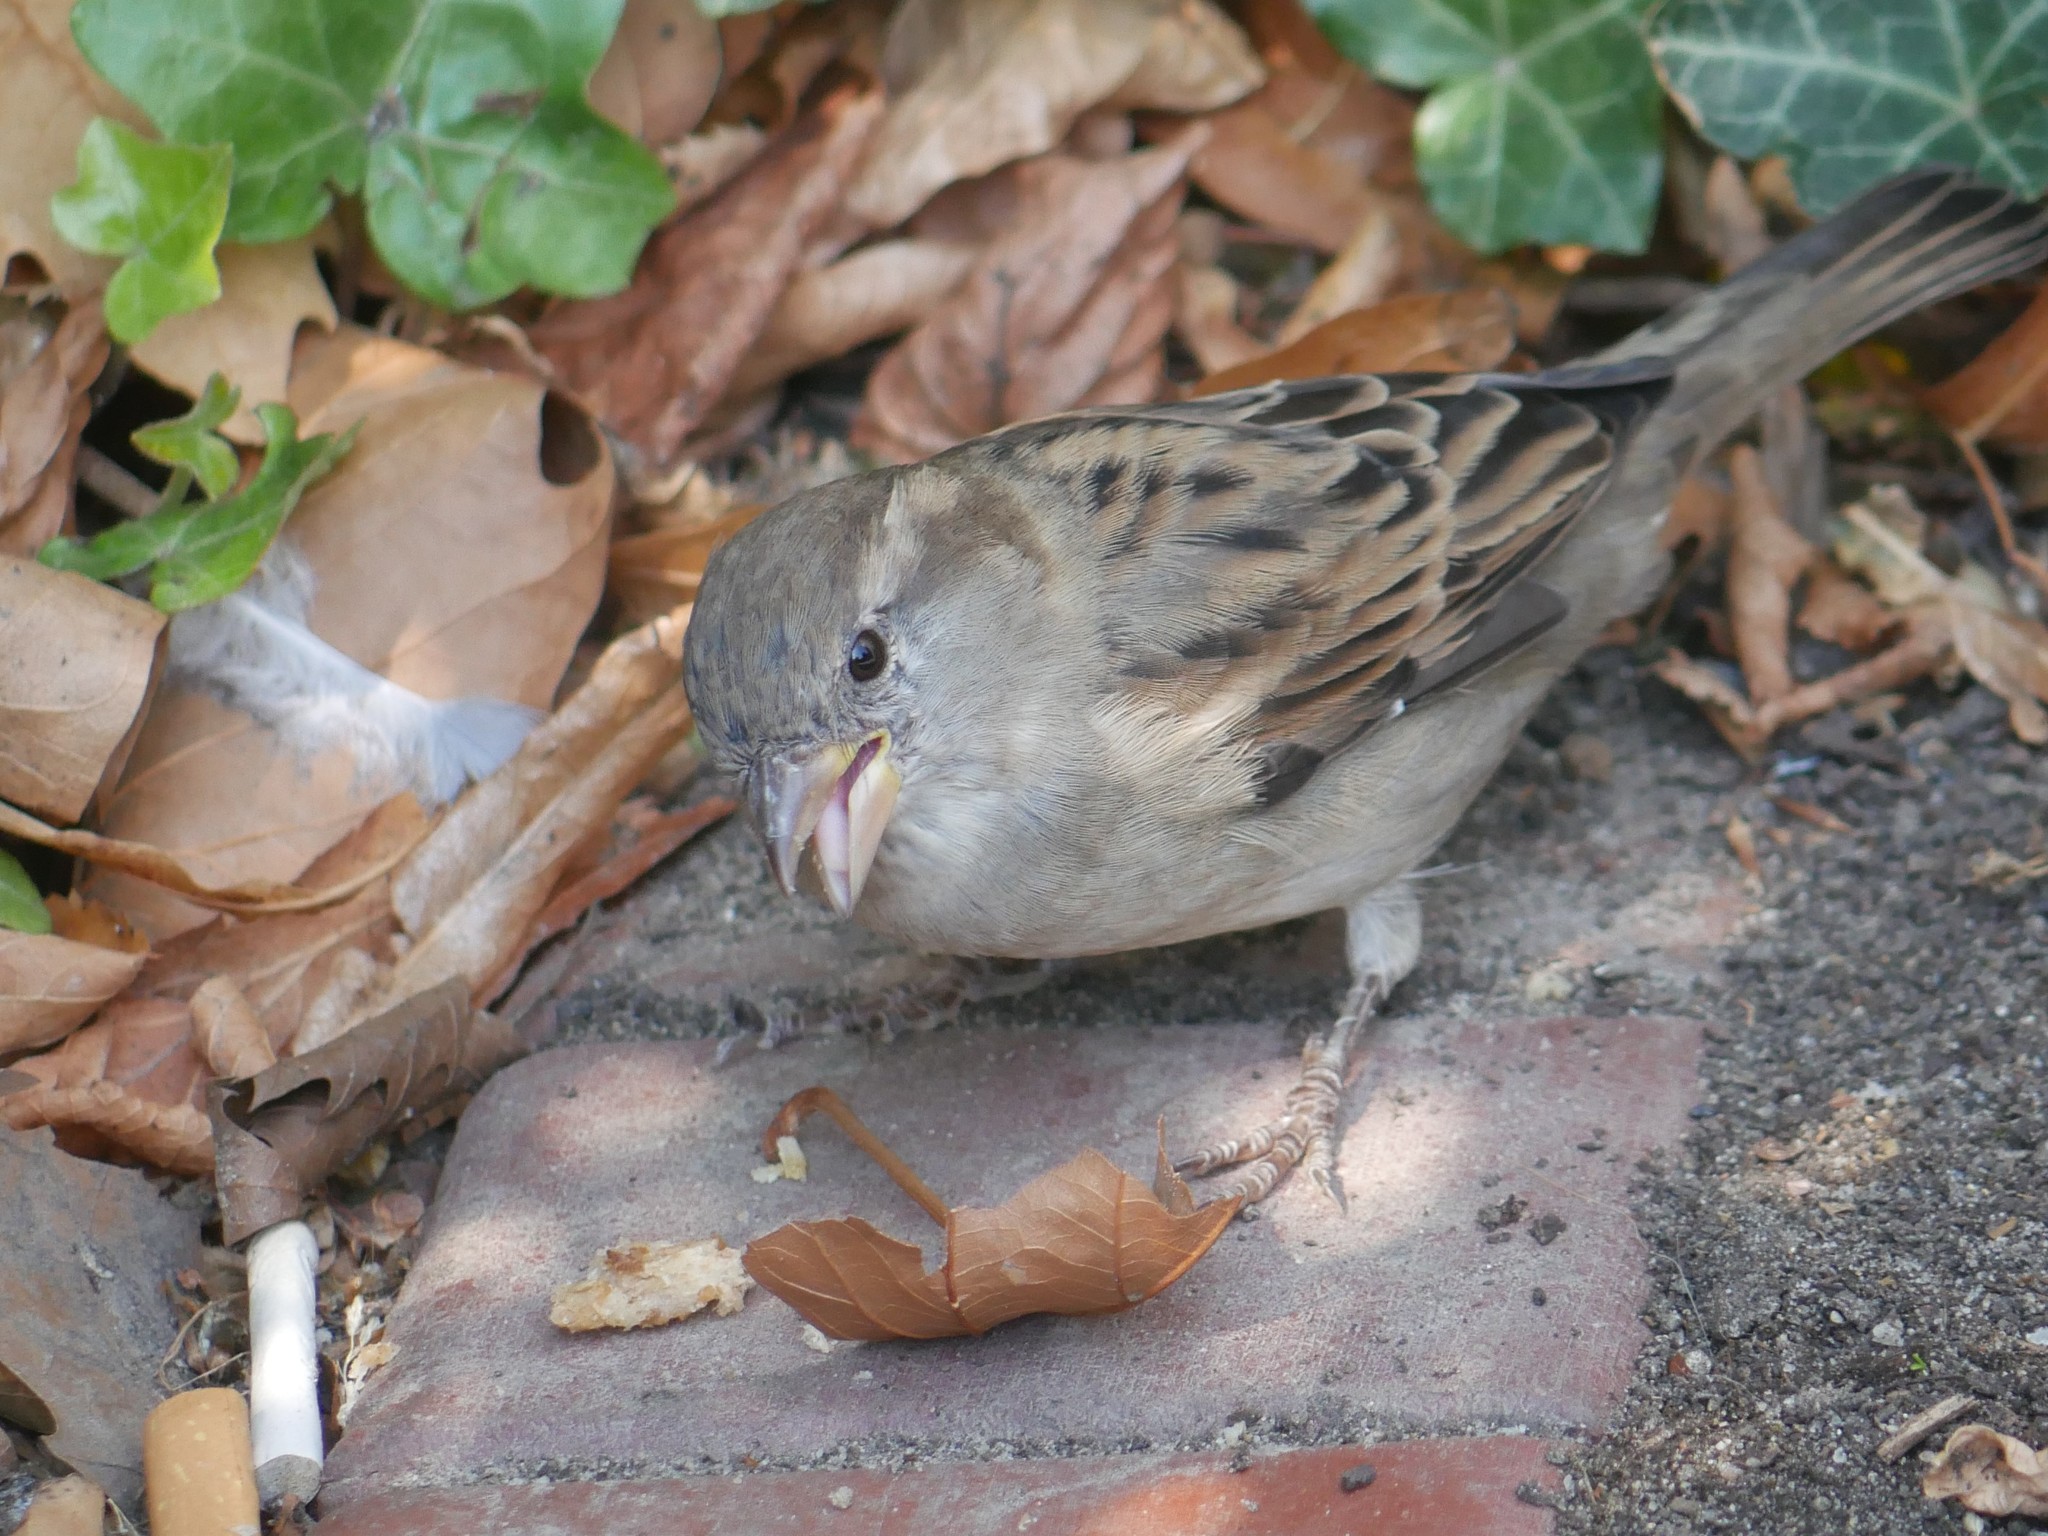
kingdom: Animalia
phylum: Chordata
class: Aves
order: Passeriformes
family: Passeridae
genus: Passer
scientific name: Passer domesticus
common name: House sparrow
